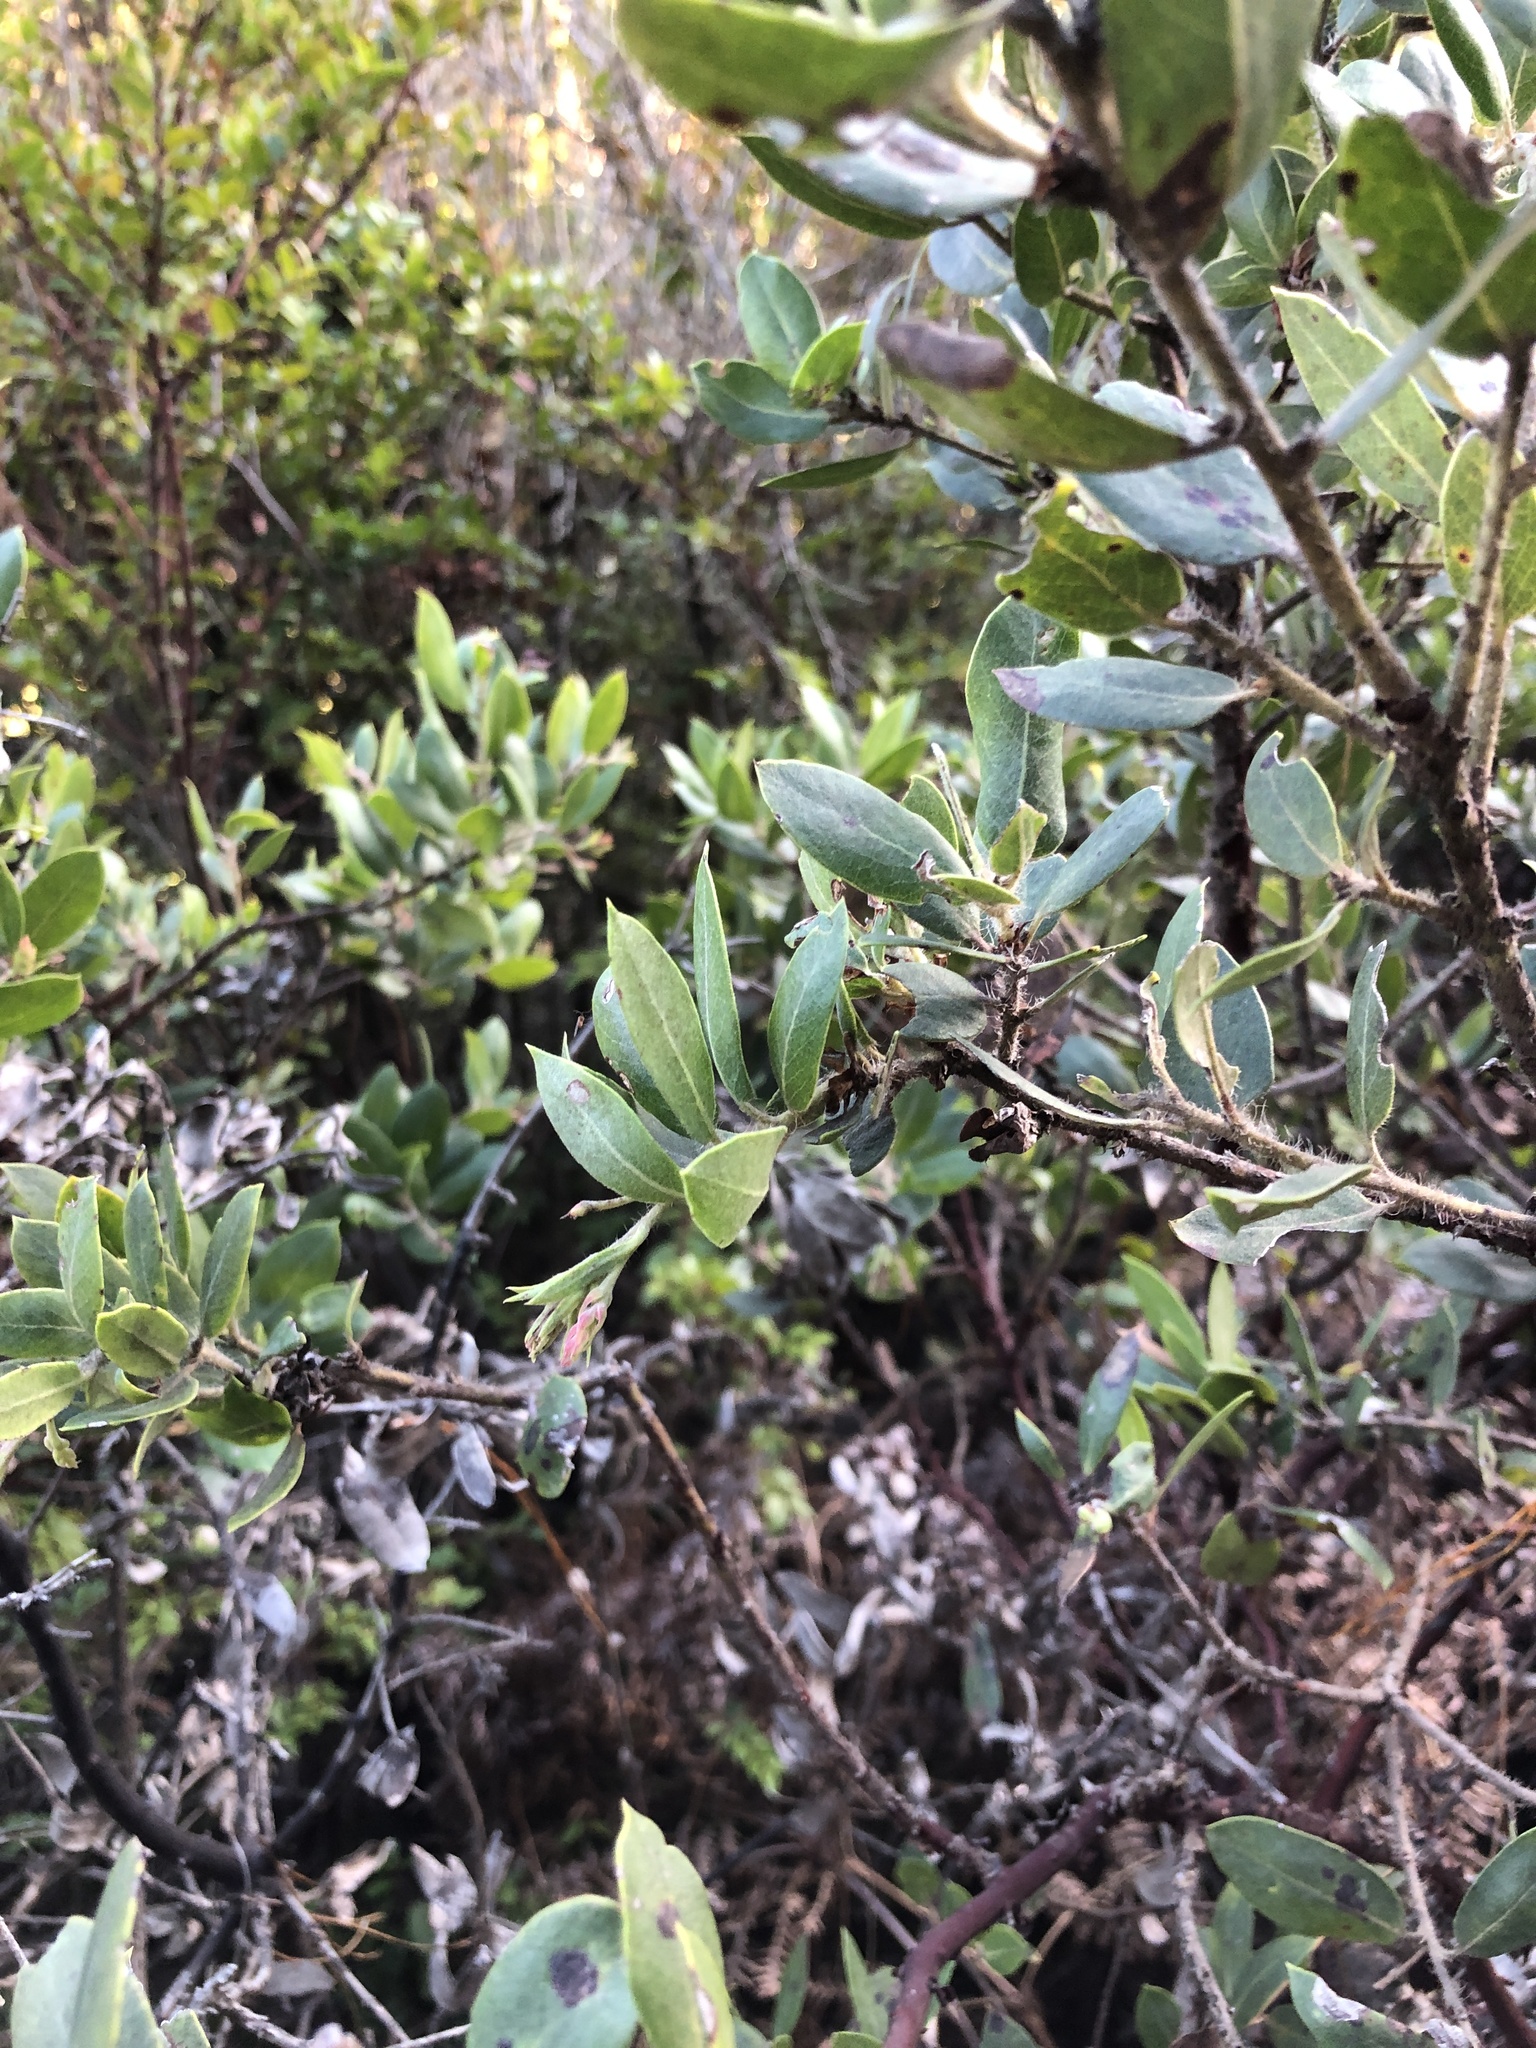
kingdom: Plantae
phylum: Tracheophyta
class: Magnoliopsida
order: Ericales
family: Ericaceae
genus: Arctostaphylos
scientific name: Arctostaphylos crustacea
